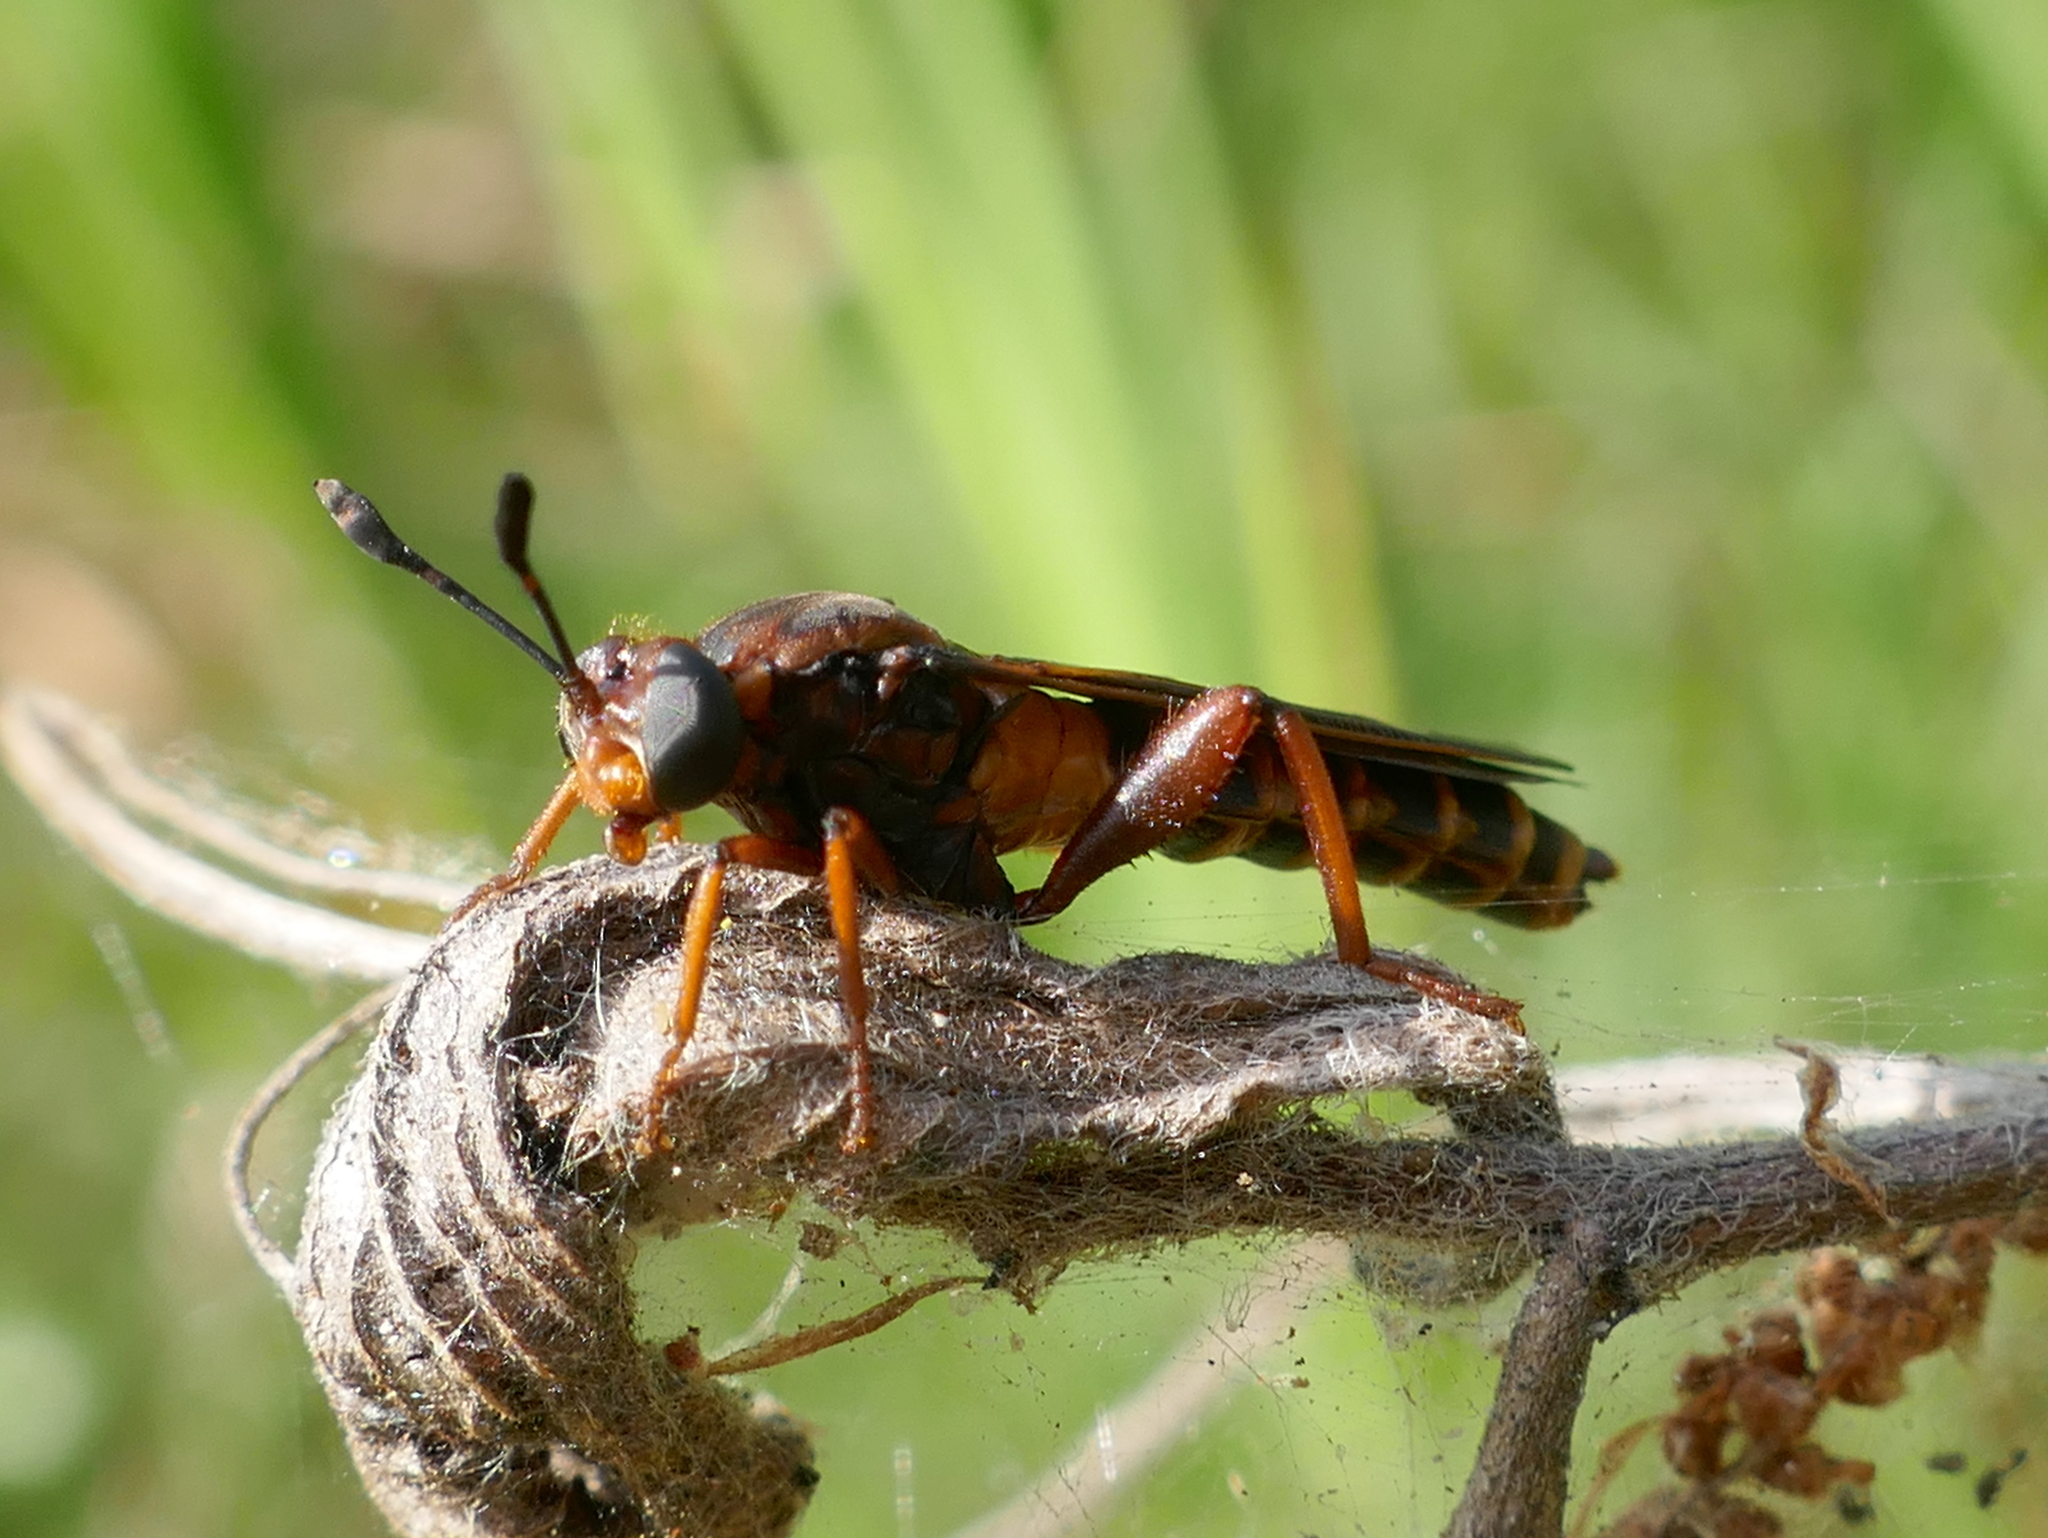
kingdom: Animalia
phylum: Arthropoda
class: Insecta
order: Diptera
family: Mydidae
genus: Phyllomydas
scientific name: Phyllomydas parvulus
